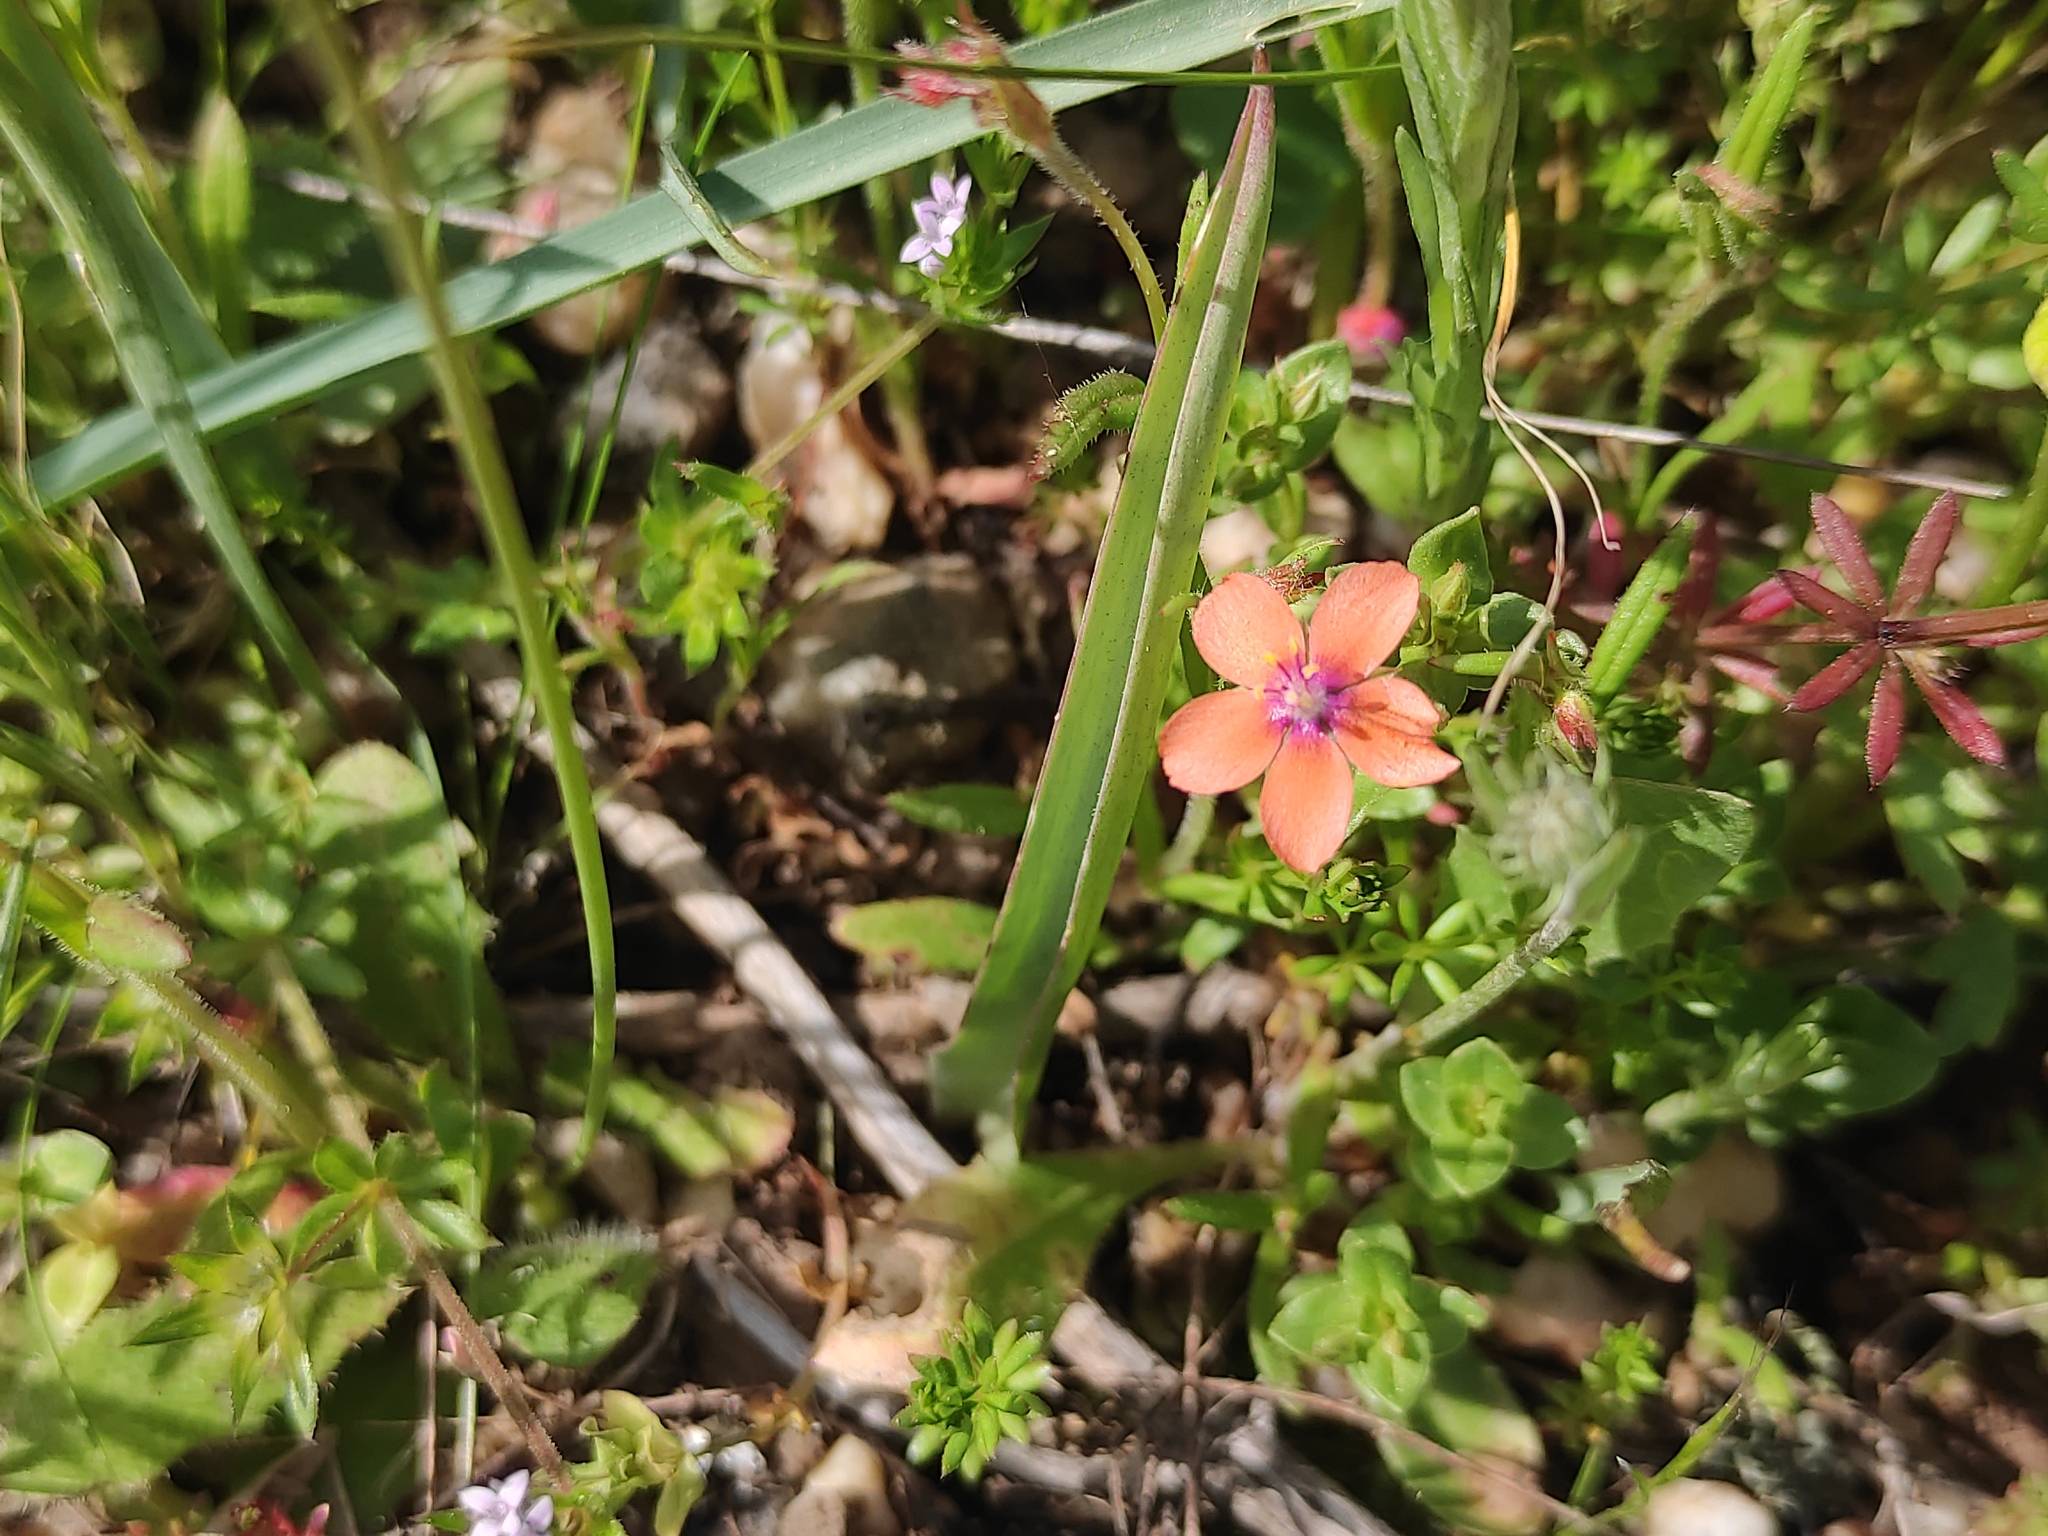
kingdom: Plantae
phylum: Tracheophyta
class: Magnoliopsida
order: Ericales
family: Primulaceae
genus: Lysimachia
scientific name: Lysimachia arvensis
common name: Scarlet pimpernel
